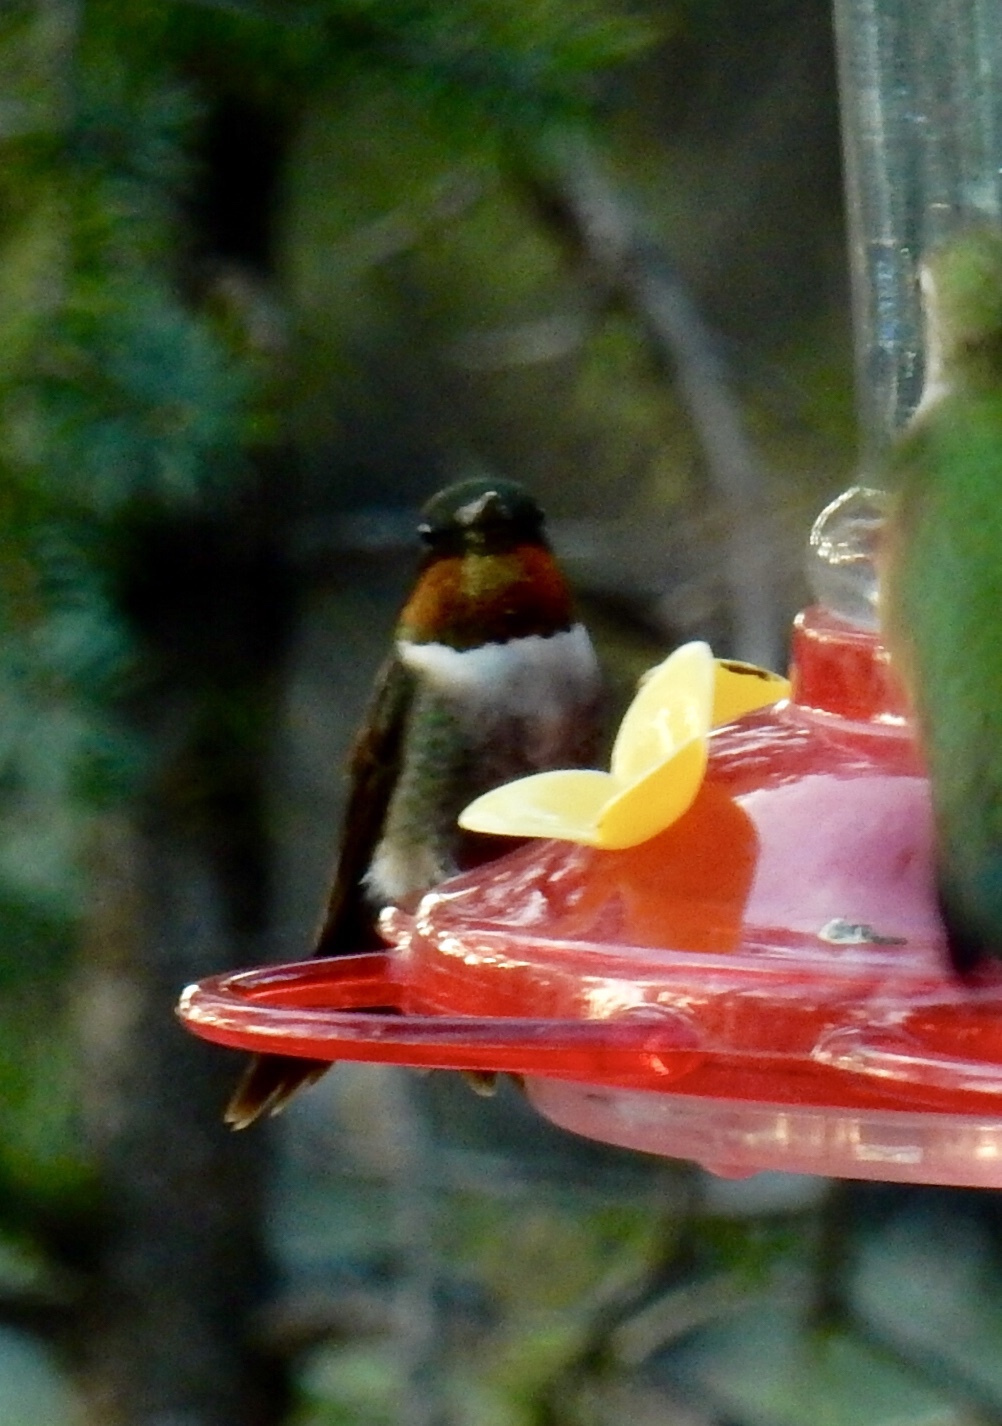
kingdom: Animalia
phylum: Chordata
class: Aves
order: Apodiformes
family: Trochilidae
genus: Archilochus
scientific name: Archilochus colubris
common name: Ruby-throated hummingbird
